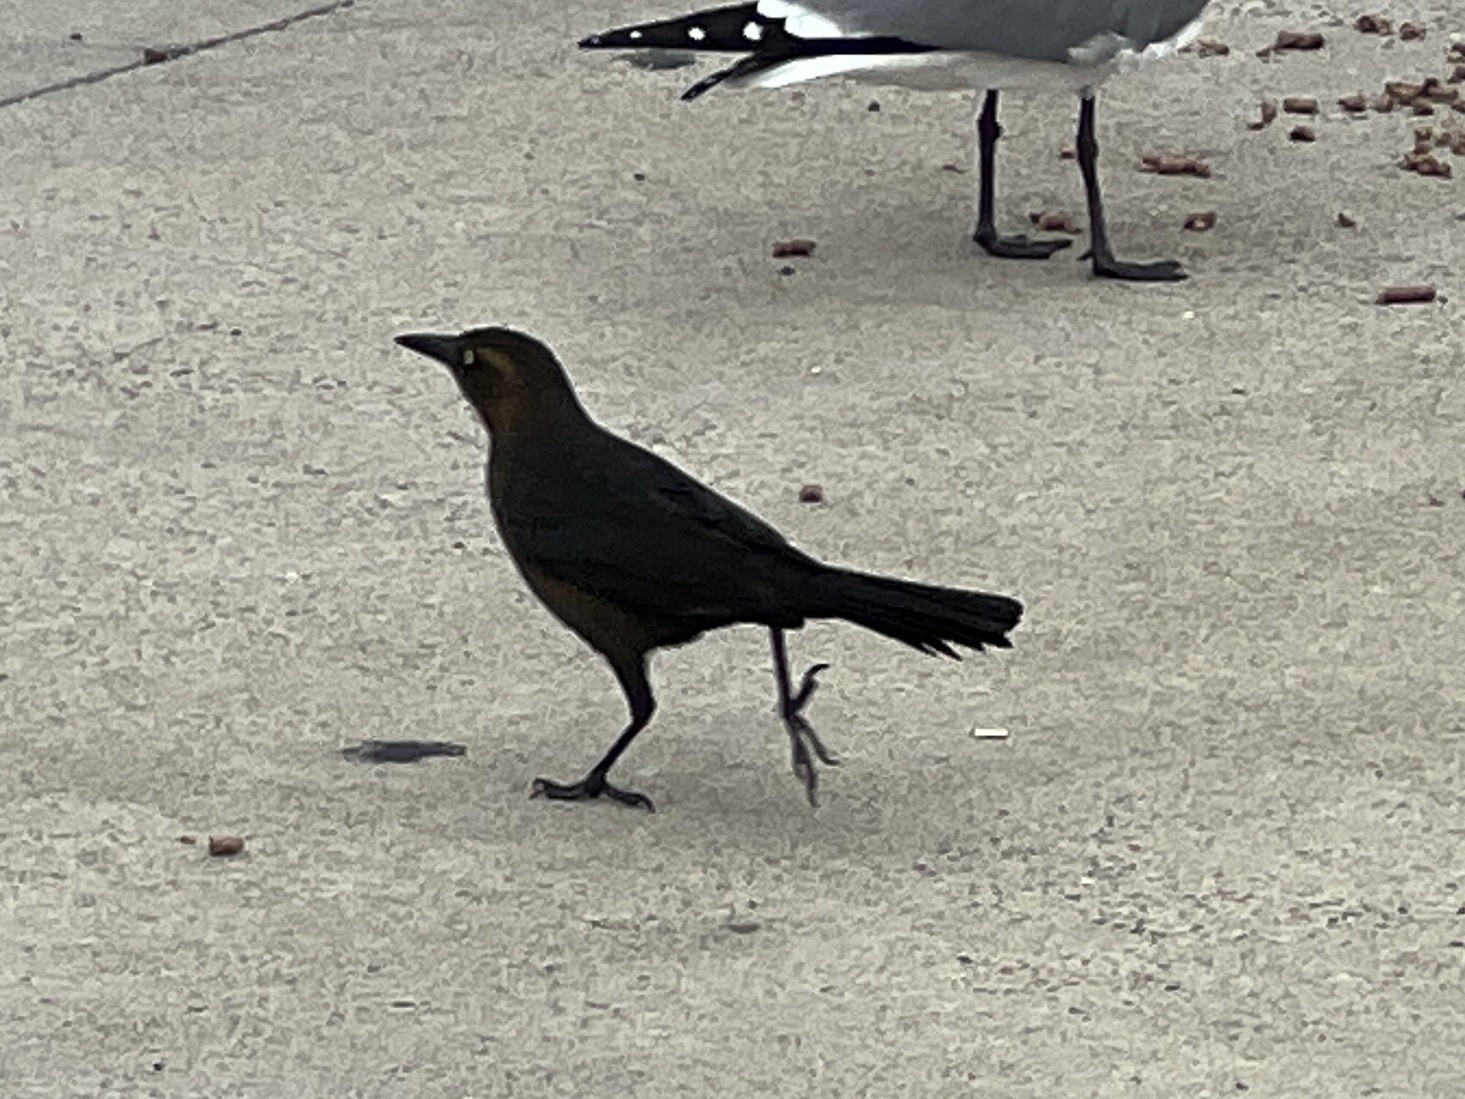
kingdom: Animalia
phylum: Chordata
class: Aves
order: Passeriformes
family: Icteridae
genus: Quiscalus
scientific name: Quiscalus mexicanus
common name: Great-tailed grackle
